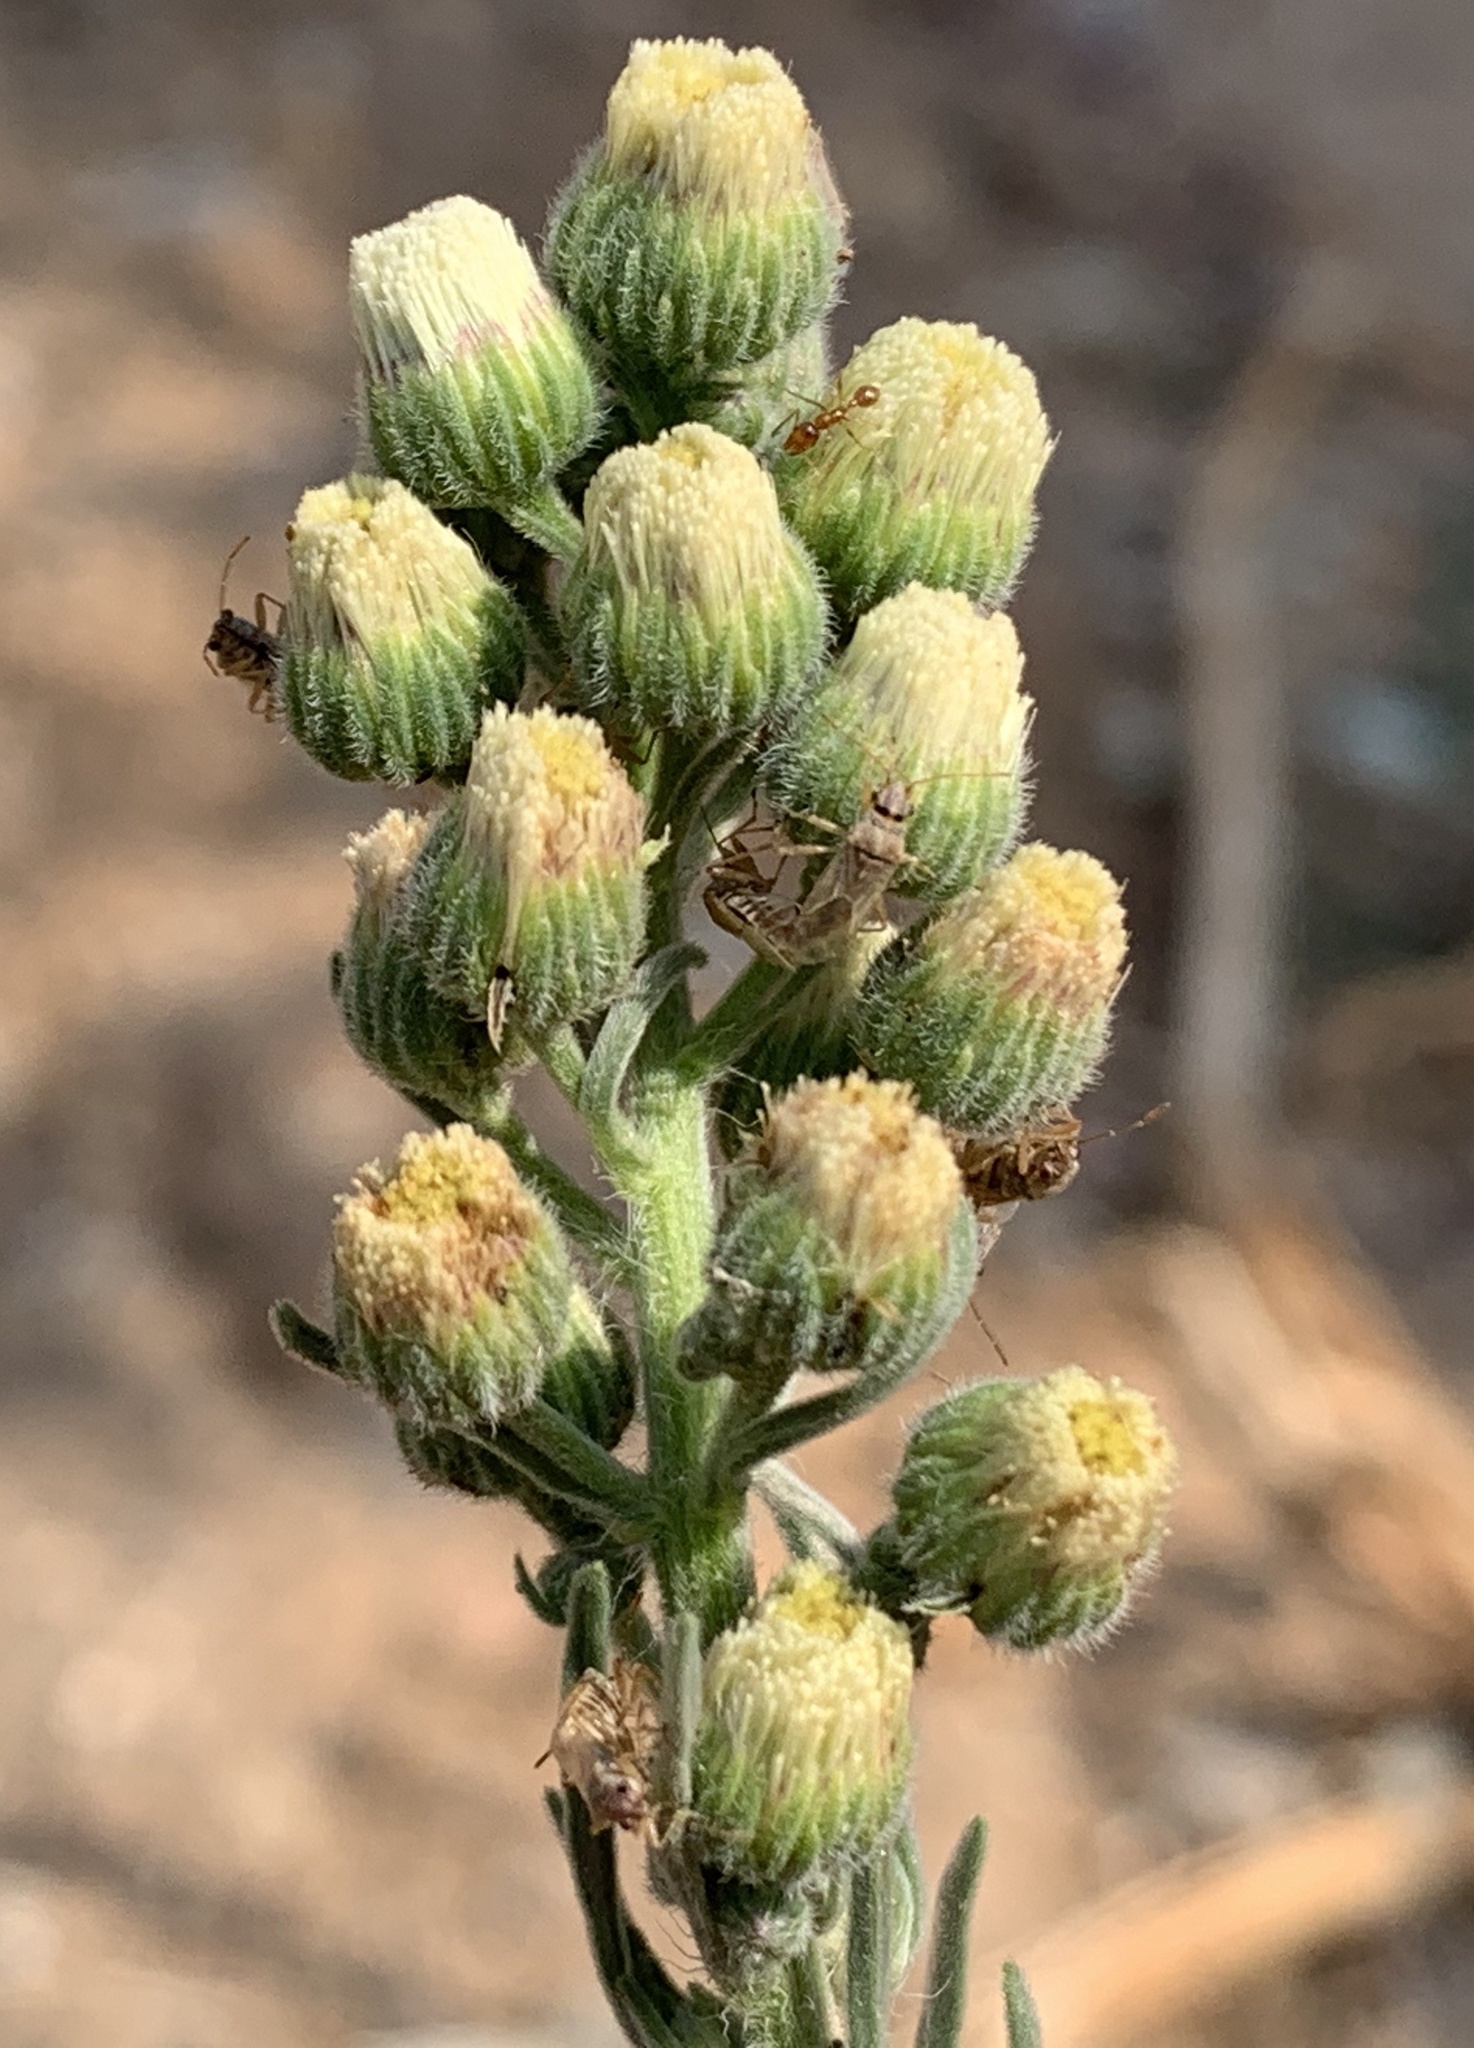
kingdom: Plantae
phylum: Tracheophyta
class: Magnoliopsida
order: Asterales
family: Asteraceae
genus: Erigeron
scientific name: Erigeron bonariensis
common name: Argentine fleabane
